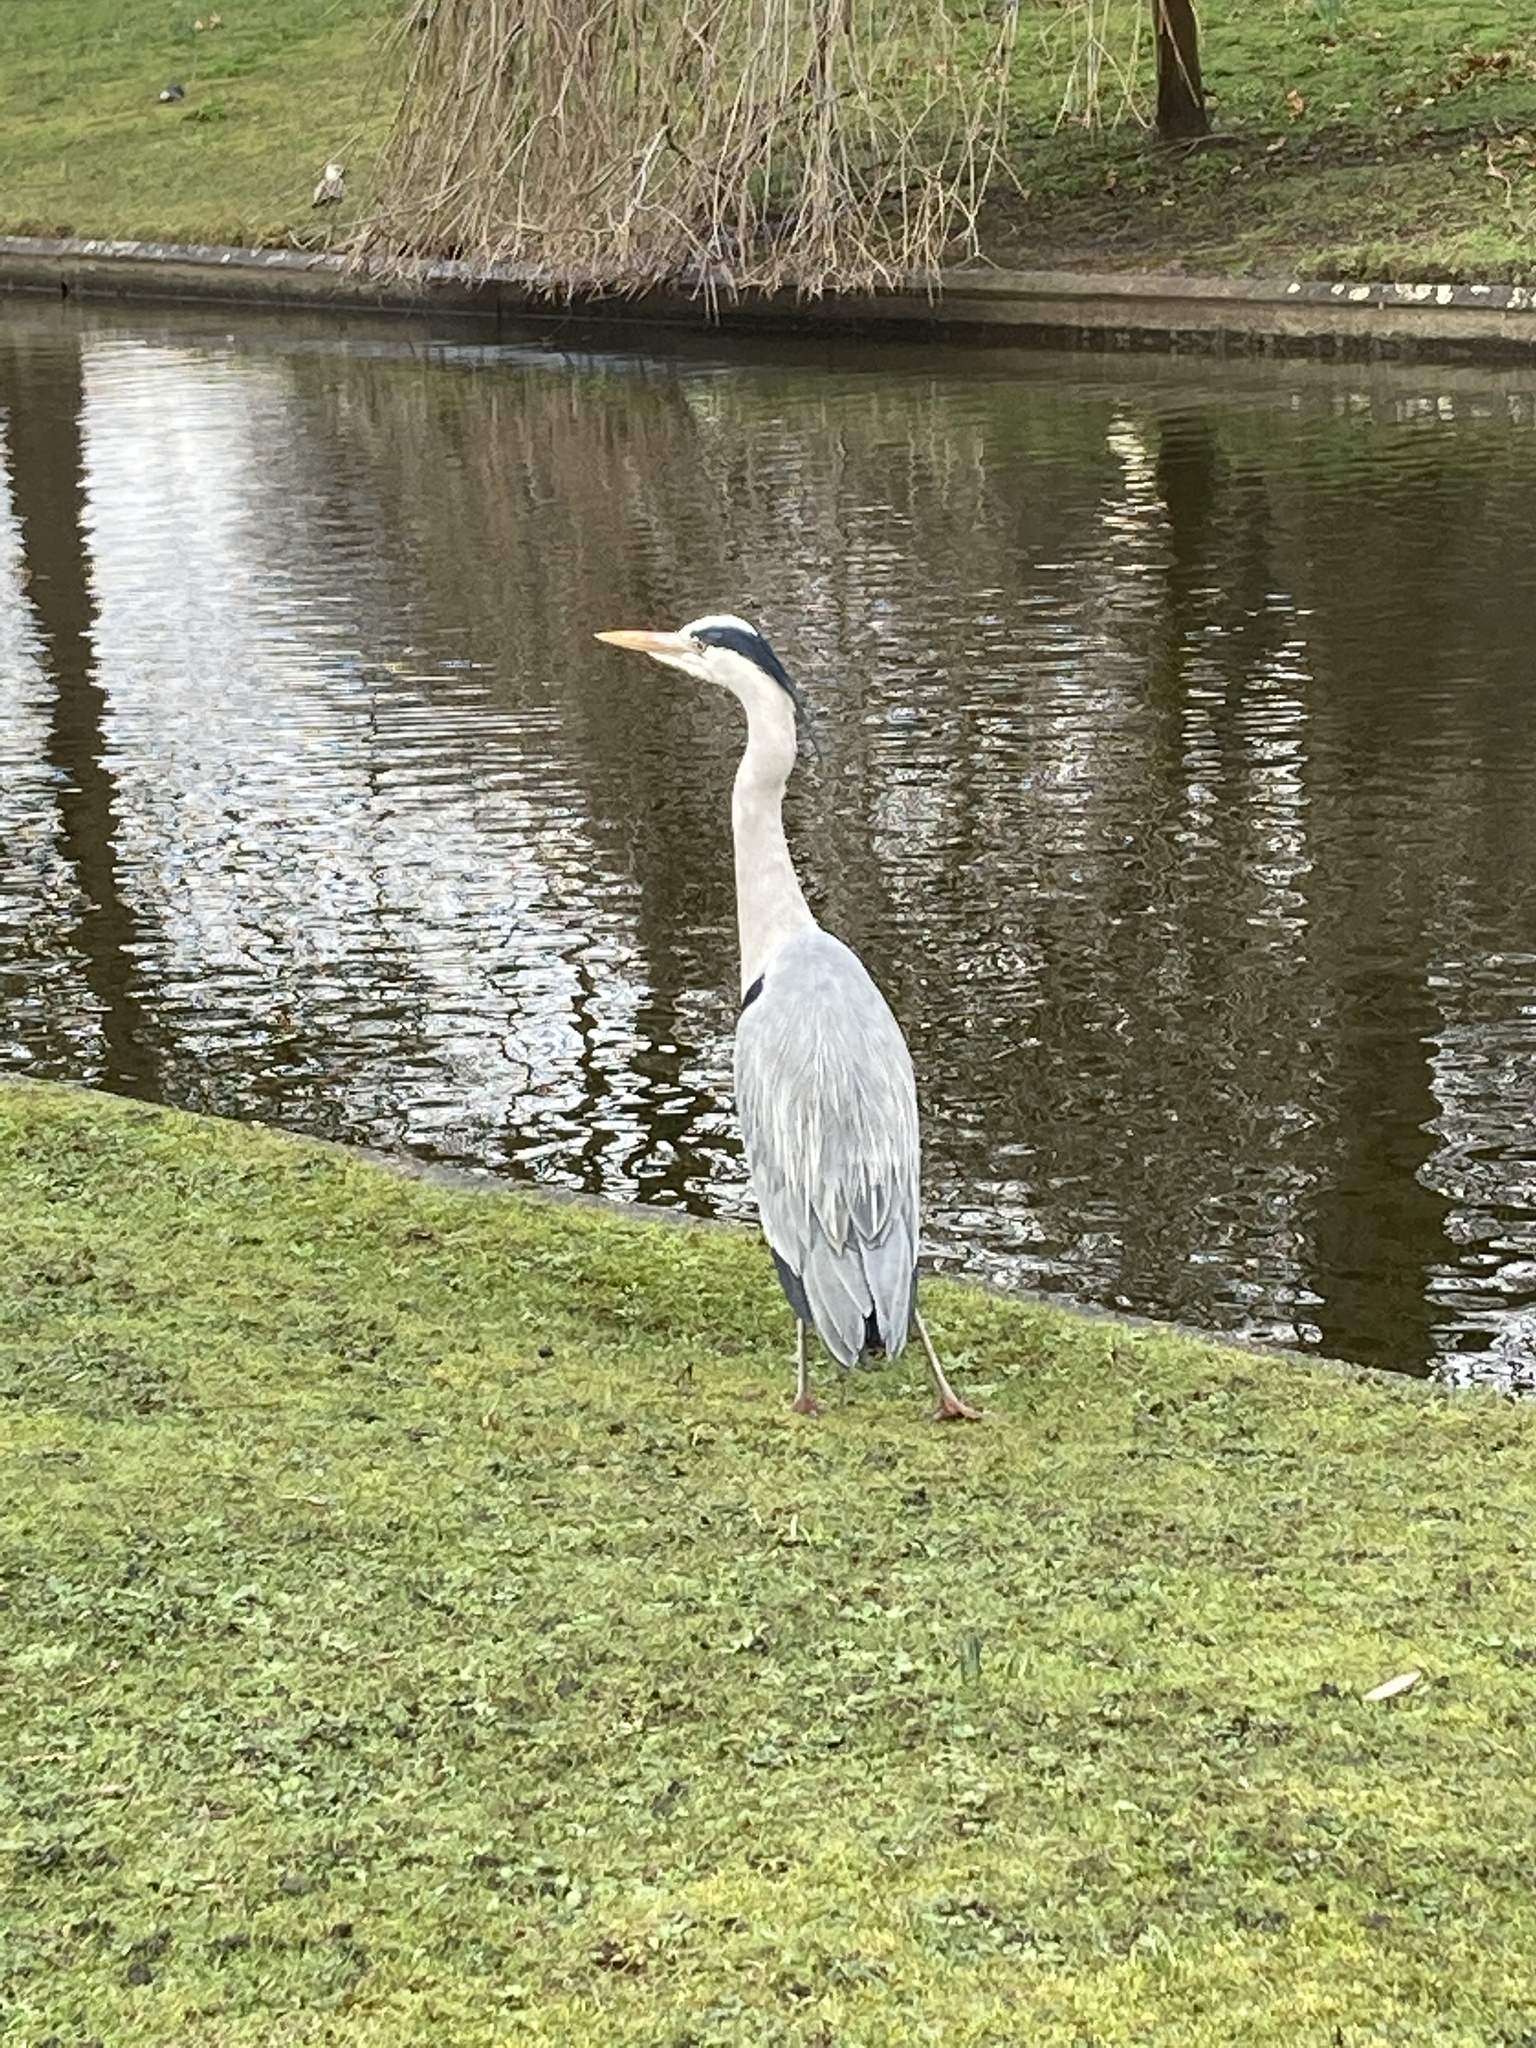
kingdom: Animalia
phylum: Chordata
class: Aves
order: Pelecaniformes
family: Ardeidae
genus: Ardea
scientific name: Ardea cinerea
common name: Grey heron
